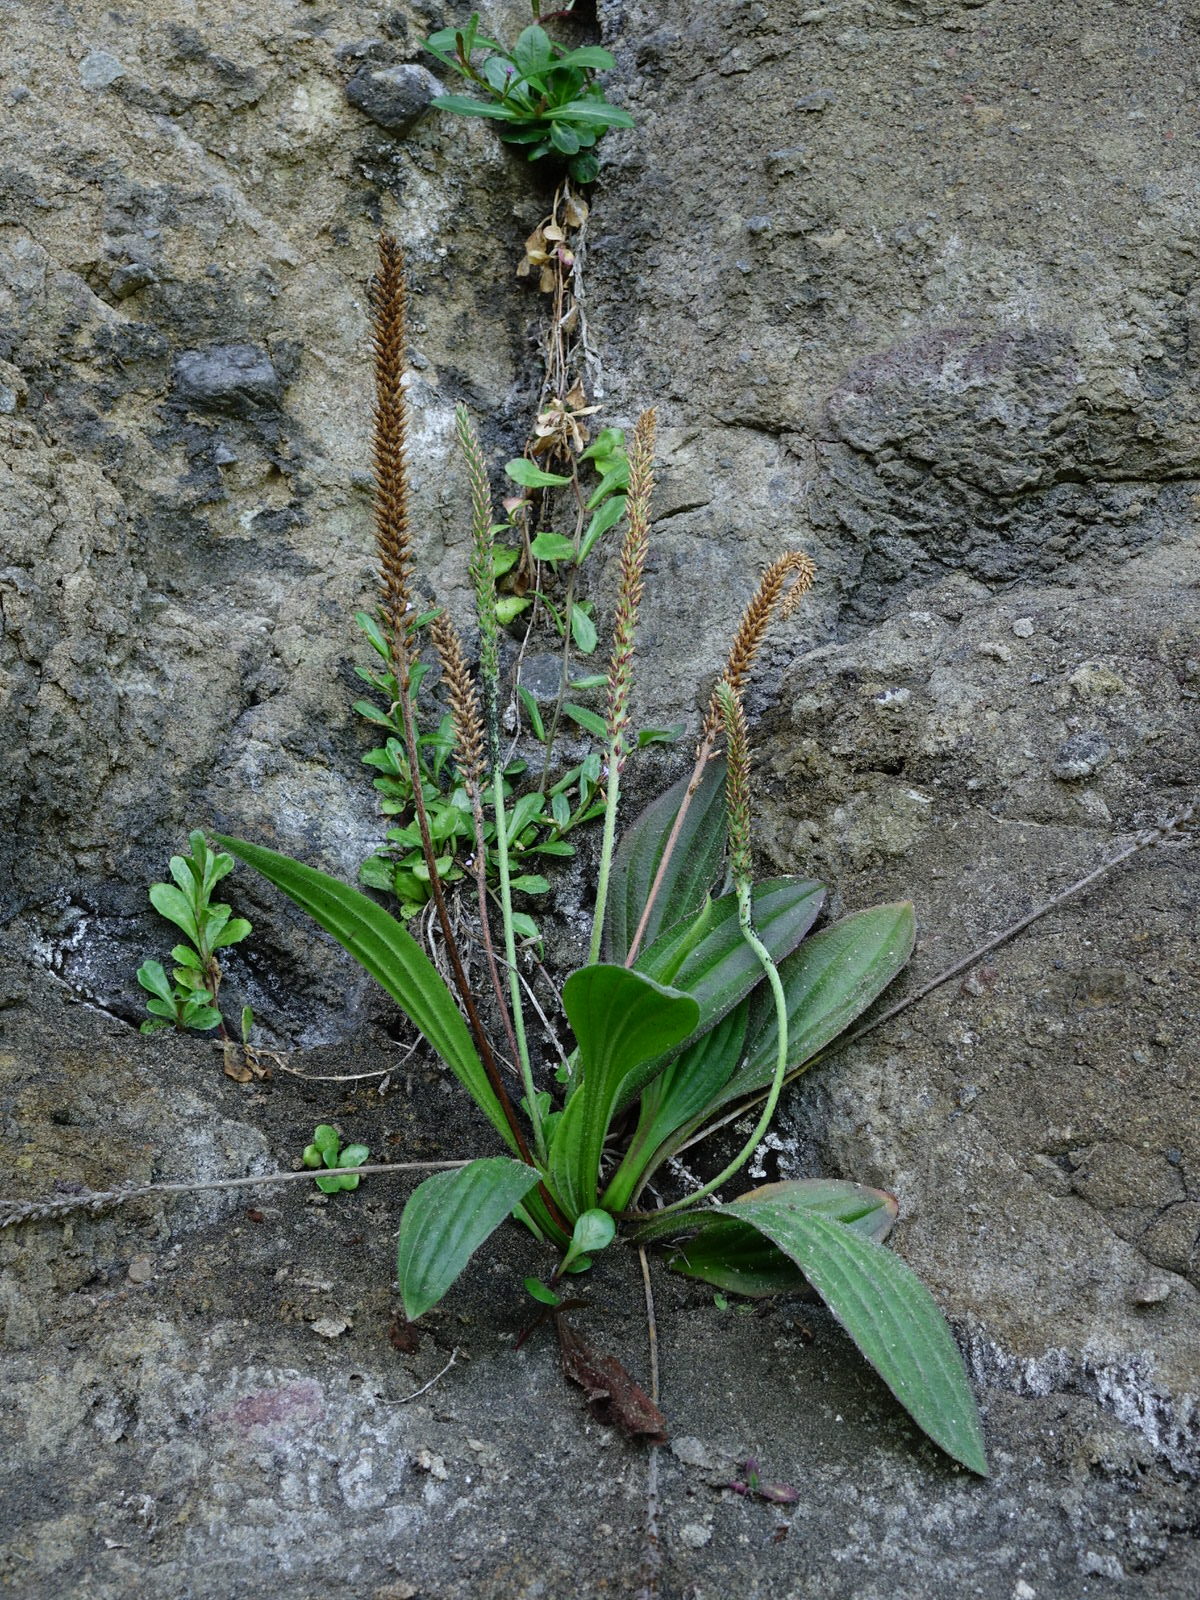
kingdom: Plantae
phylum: Tracheophyta
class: Magnoliopsida
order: Lamiales
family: Plantaginaceae
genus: Plantago
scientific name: Plantago australis
